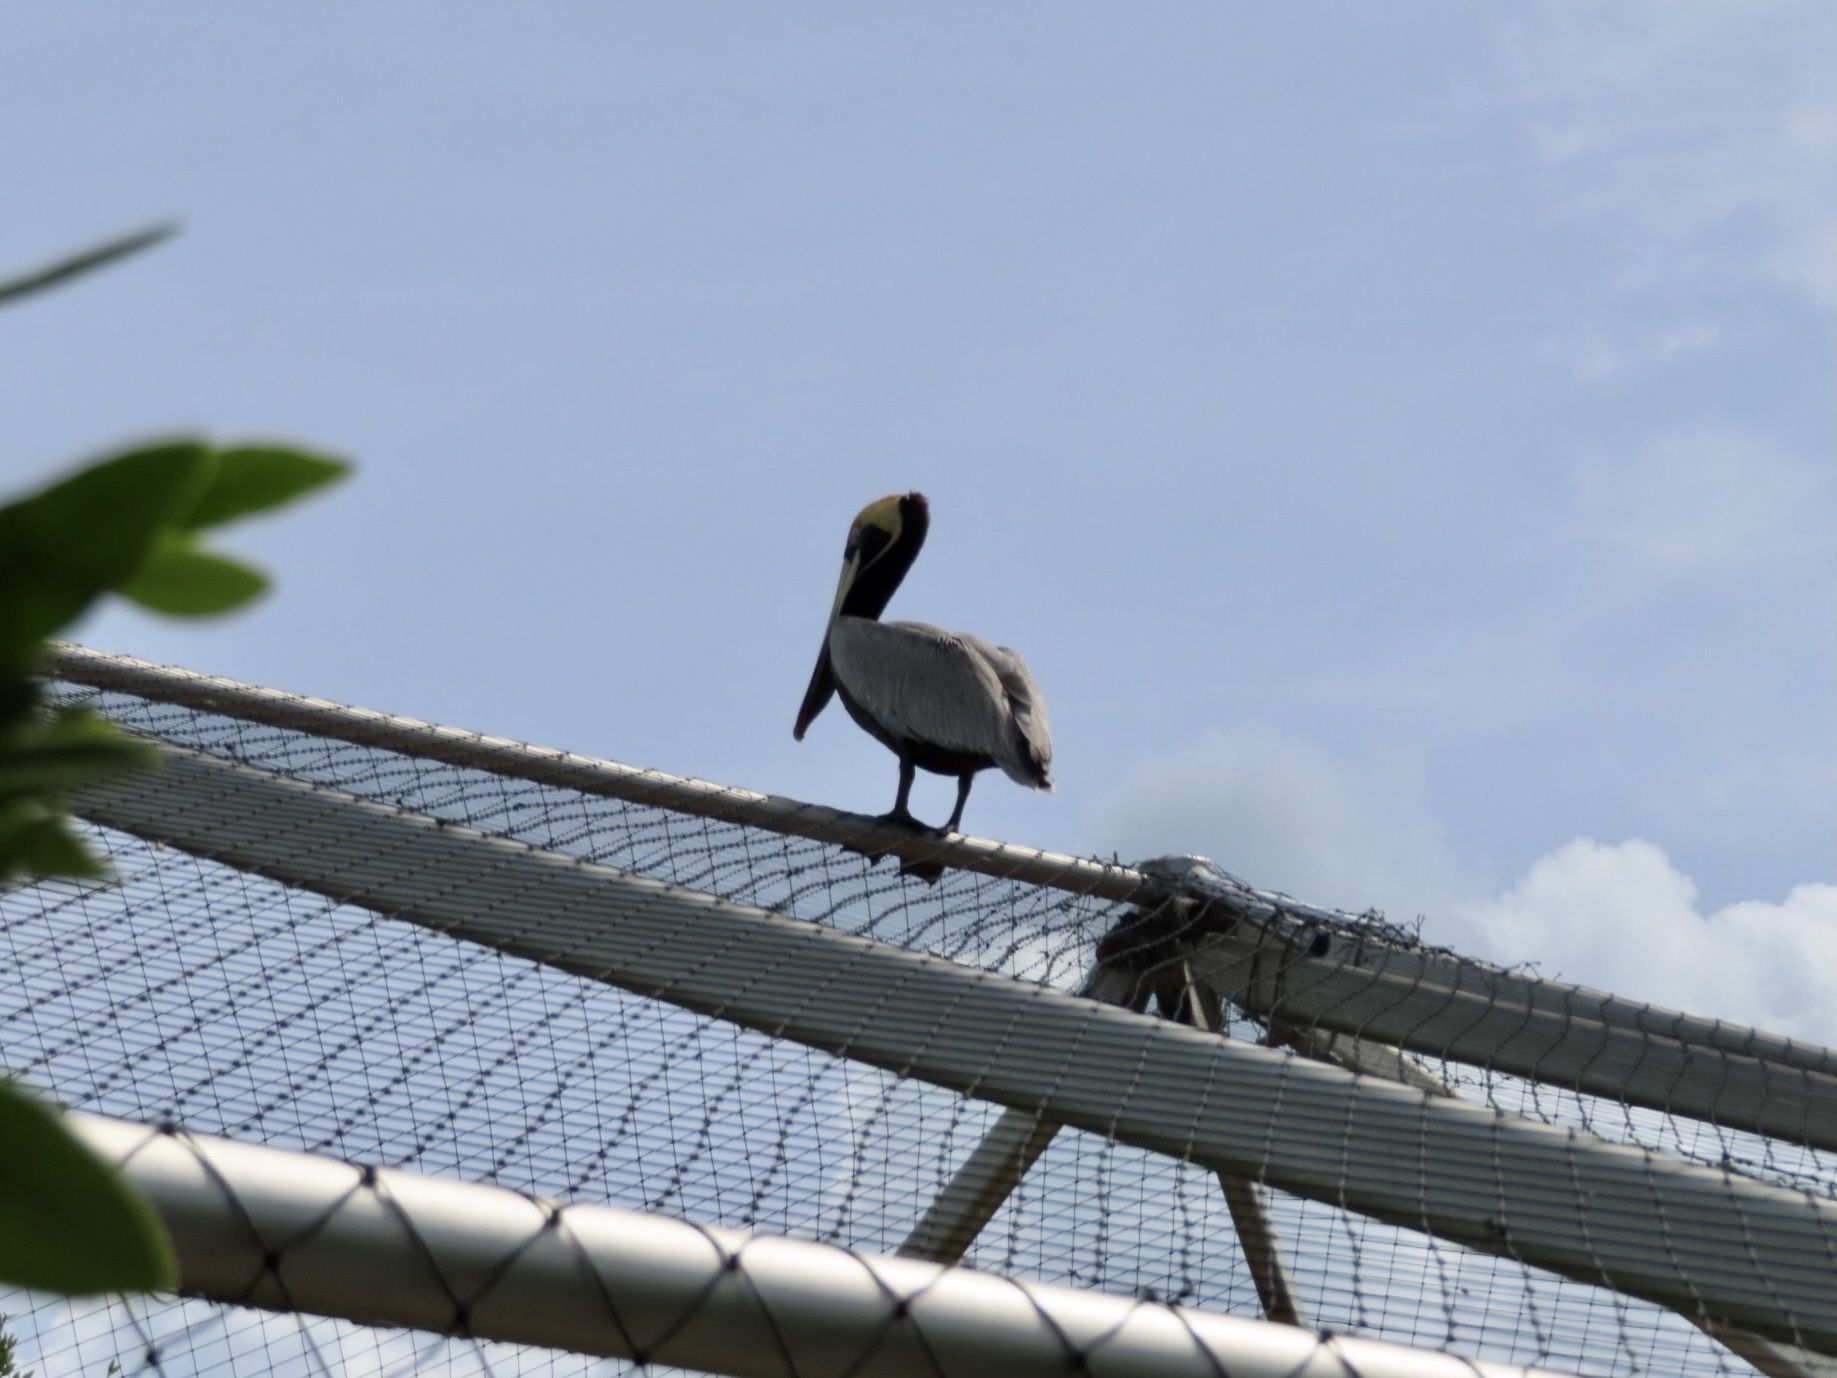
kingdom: Animalia
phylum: Chordata
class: Aves
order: Pelecaniformes
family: Pelecanidae
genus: Pelecanus
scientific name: Pelecanus occidentalis
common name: Brown pelican
